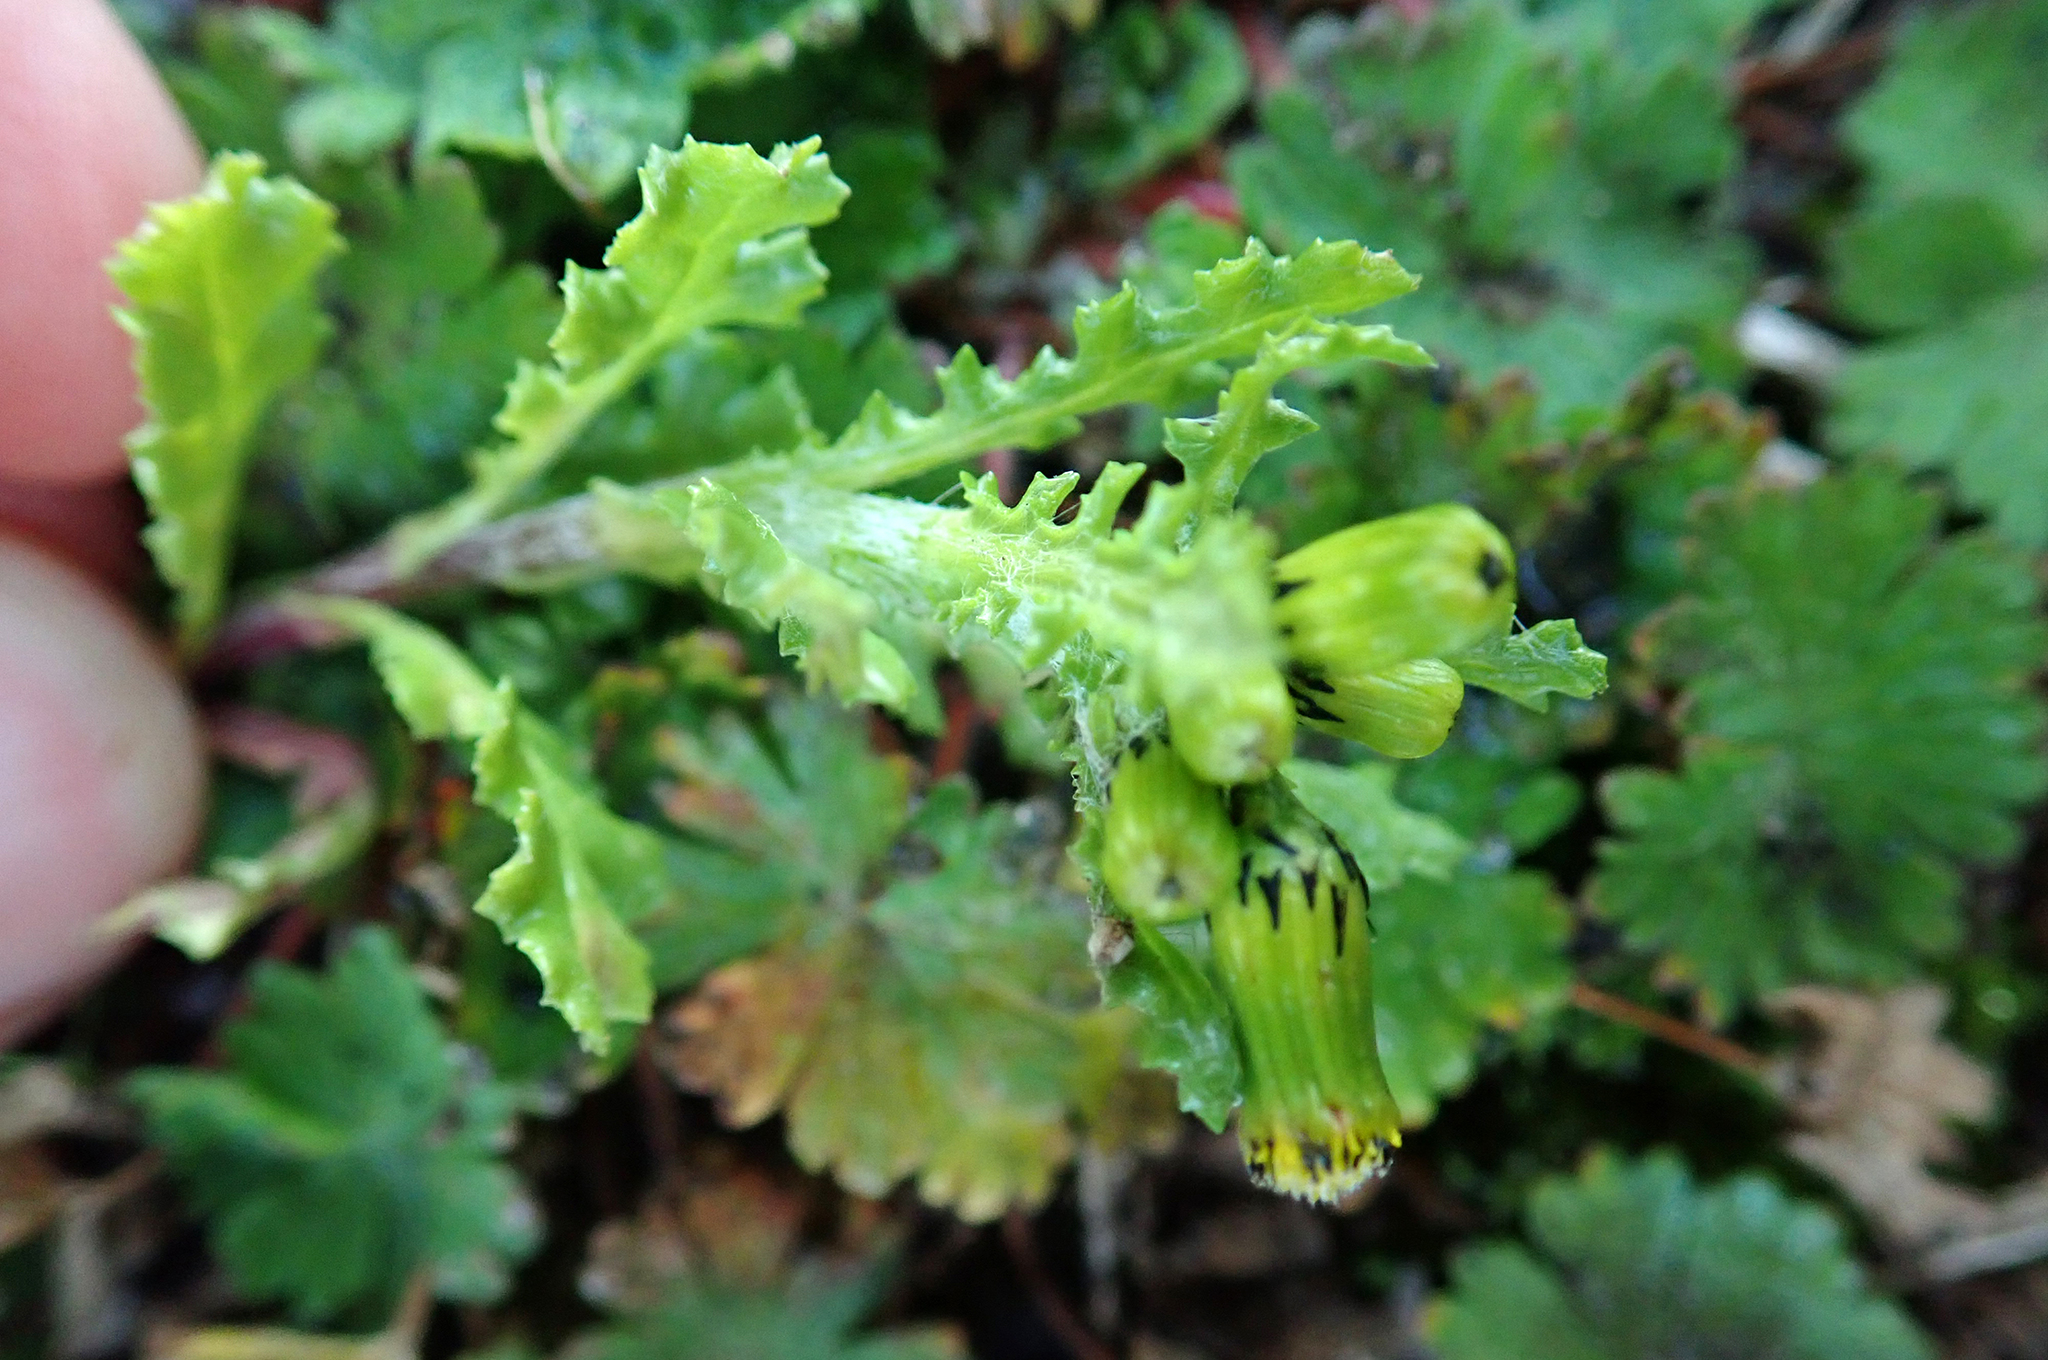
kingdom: Plantae
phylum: Tracheophyta
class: Magnoliopsida
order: Asterales
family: Asteraceae
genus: Senecio
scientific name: Senecio vulgaris
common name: Old-man-in-the-spring
